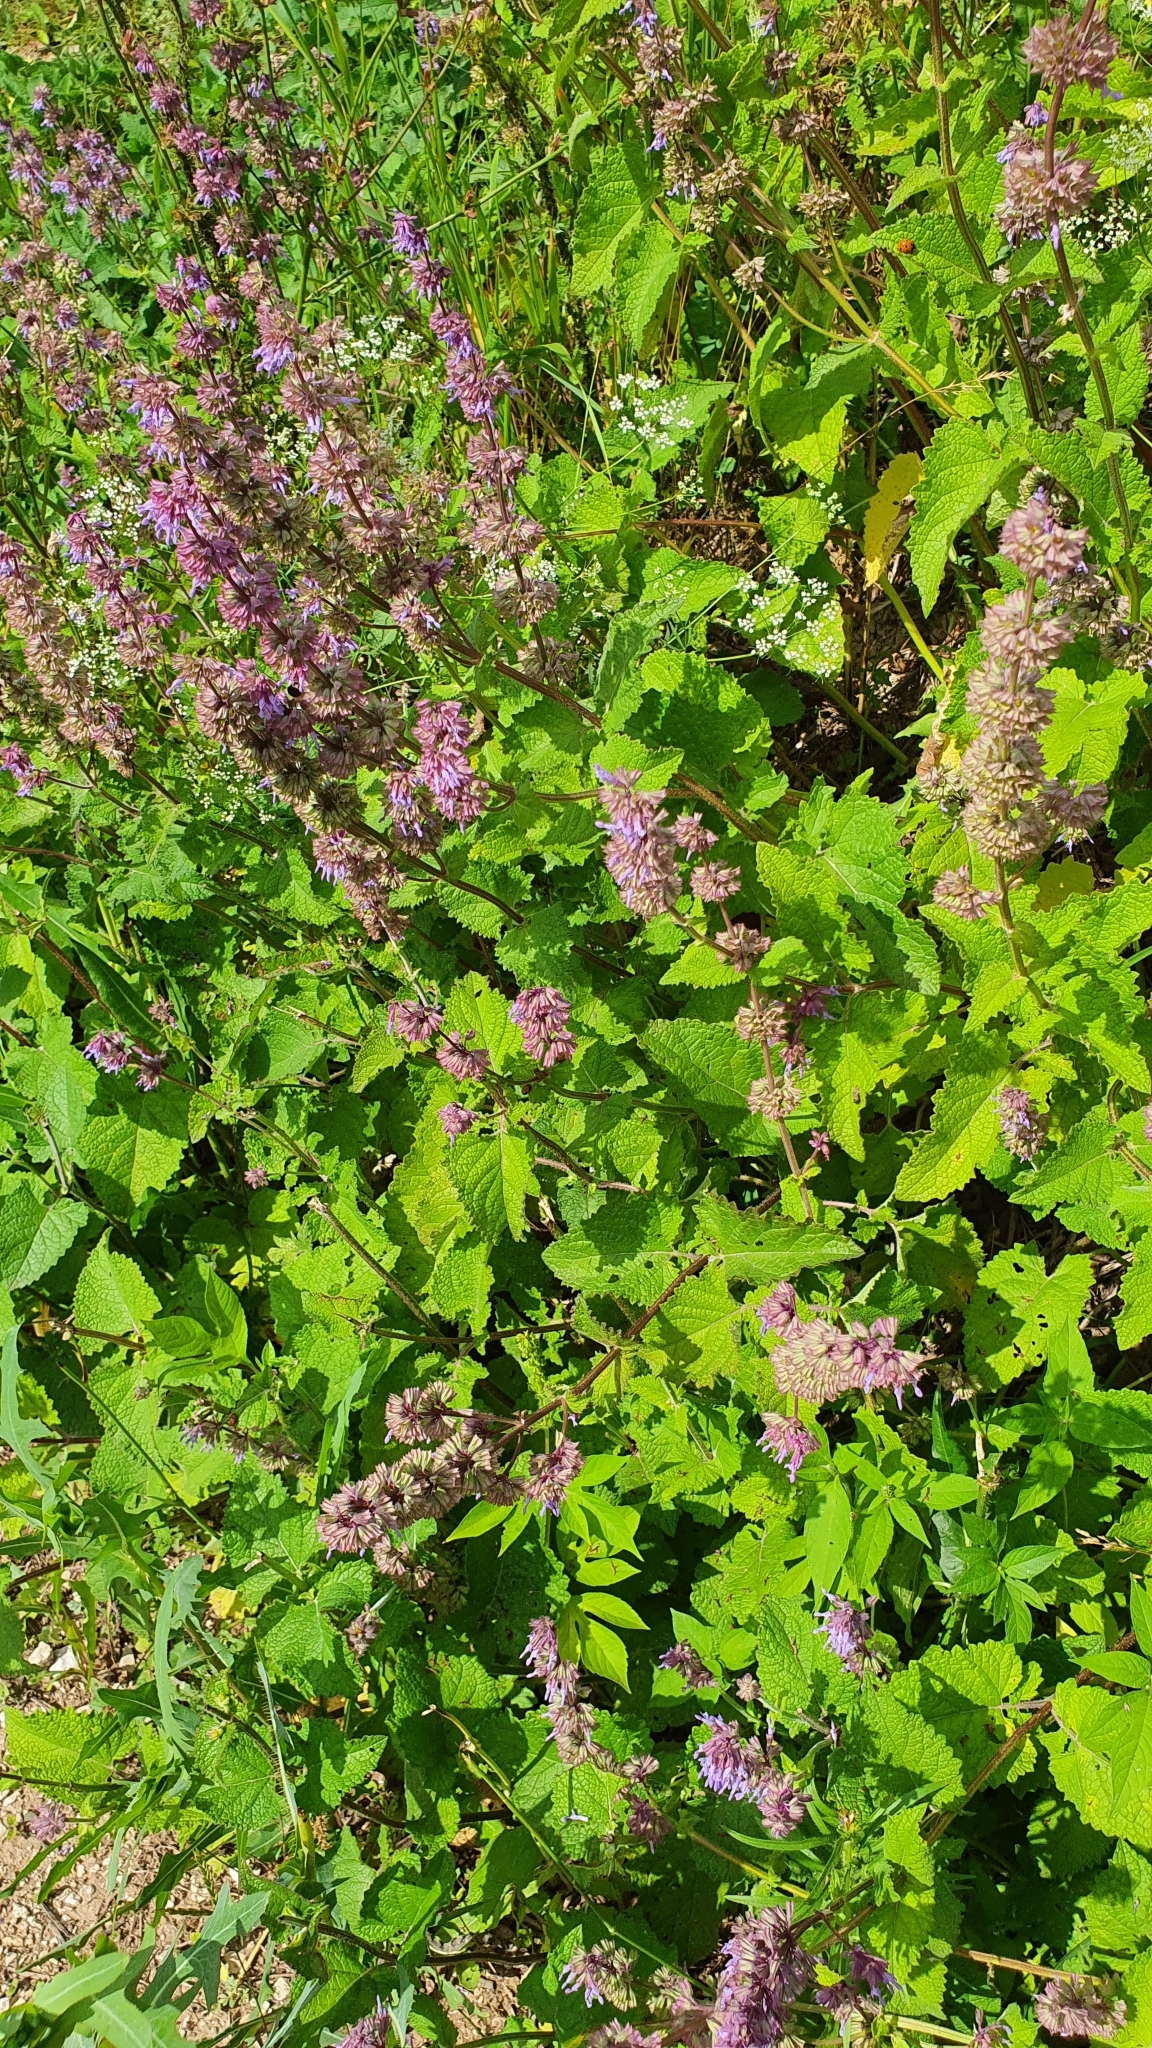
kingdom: Plantae
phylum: Tracheophyta
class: Magnoliopsida
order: Lamiales
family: Lamiaceae
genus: Salvia
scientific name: Salvia verticillata
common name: Whorled clary
